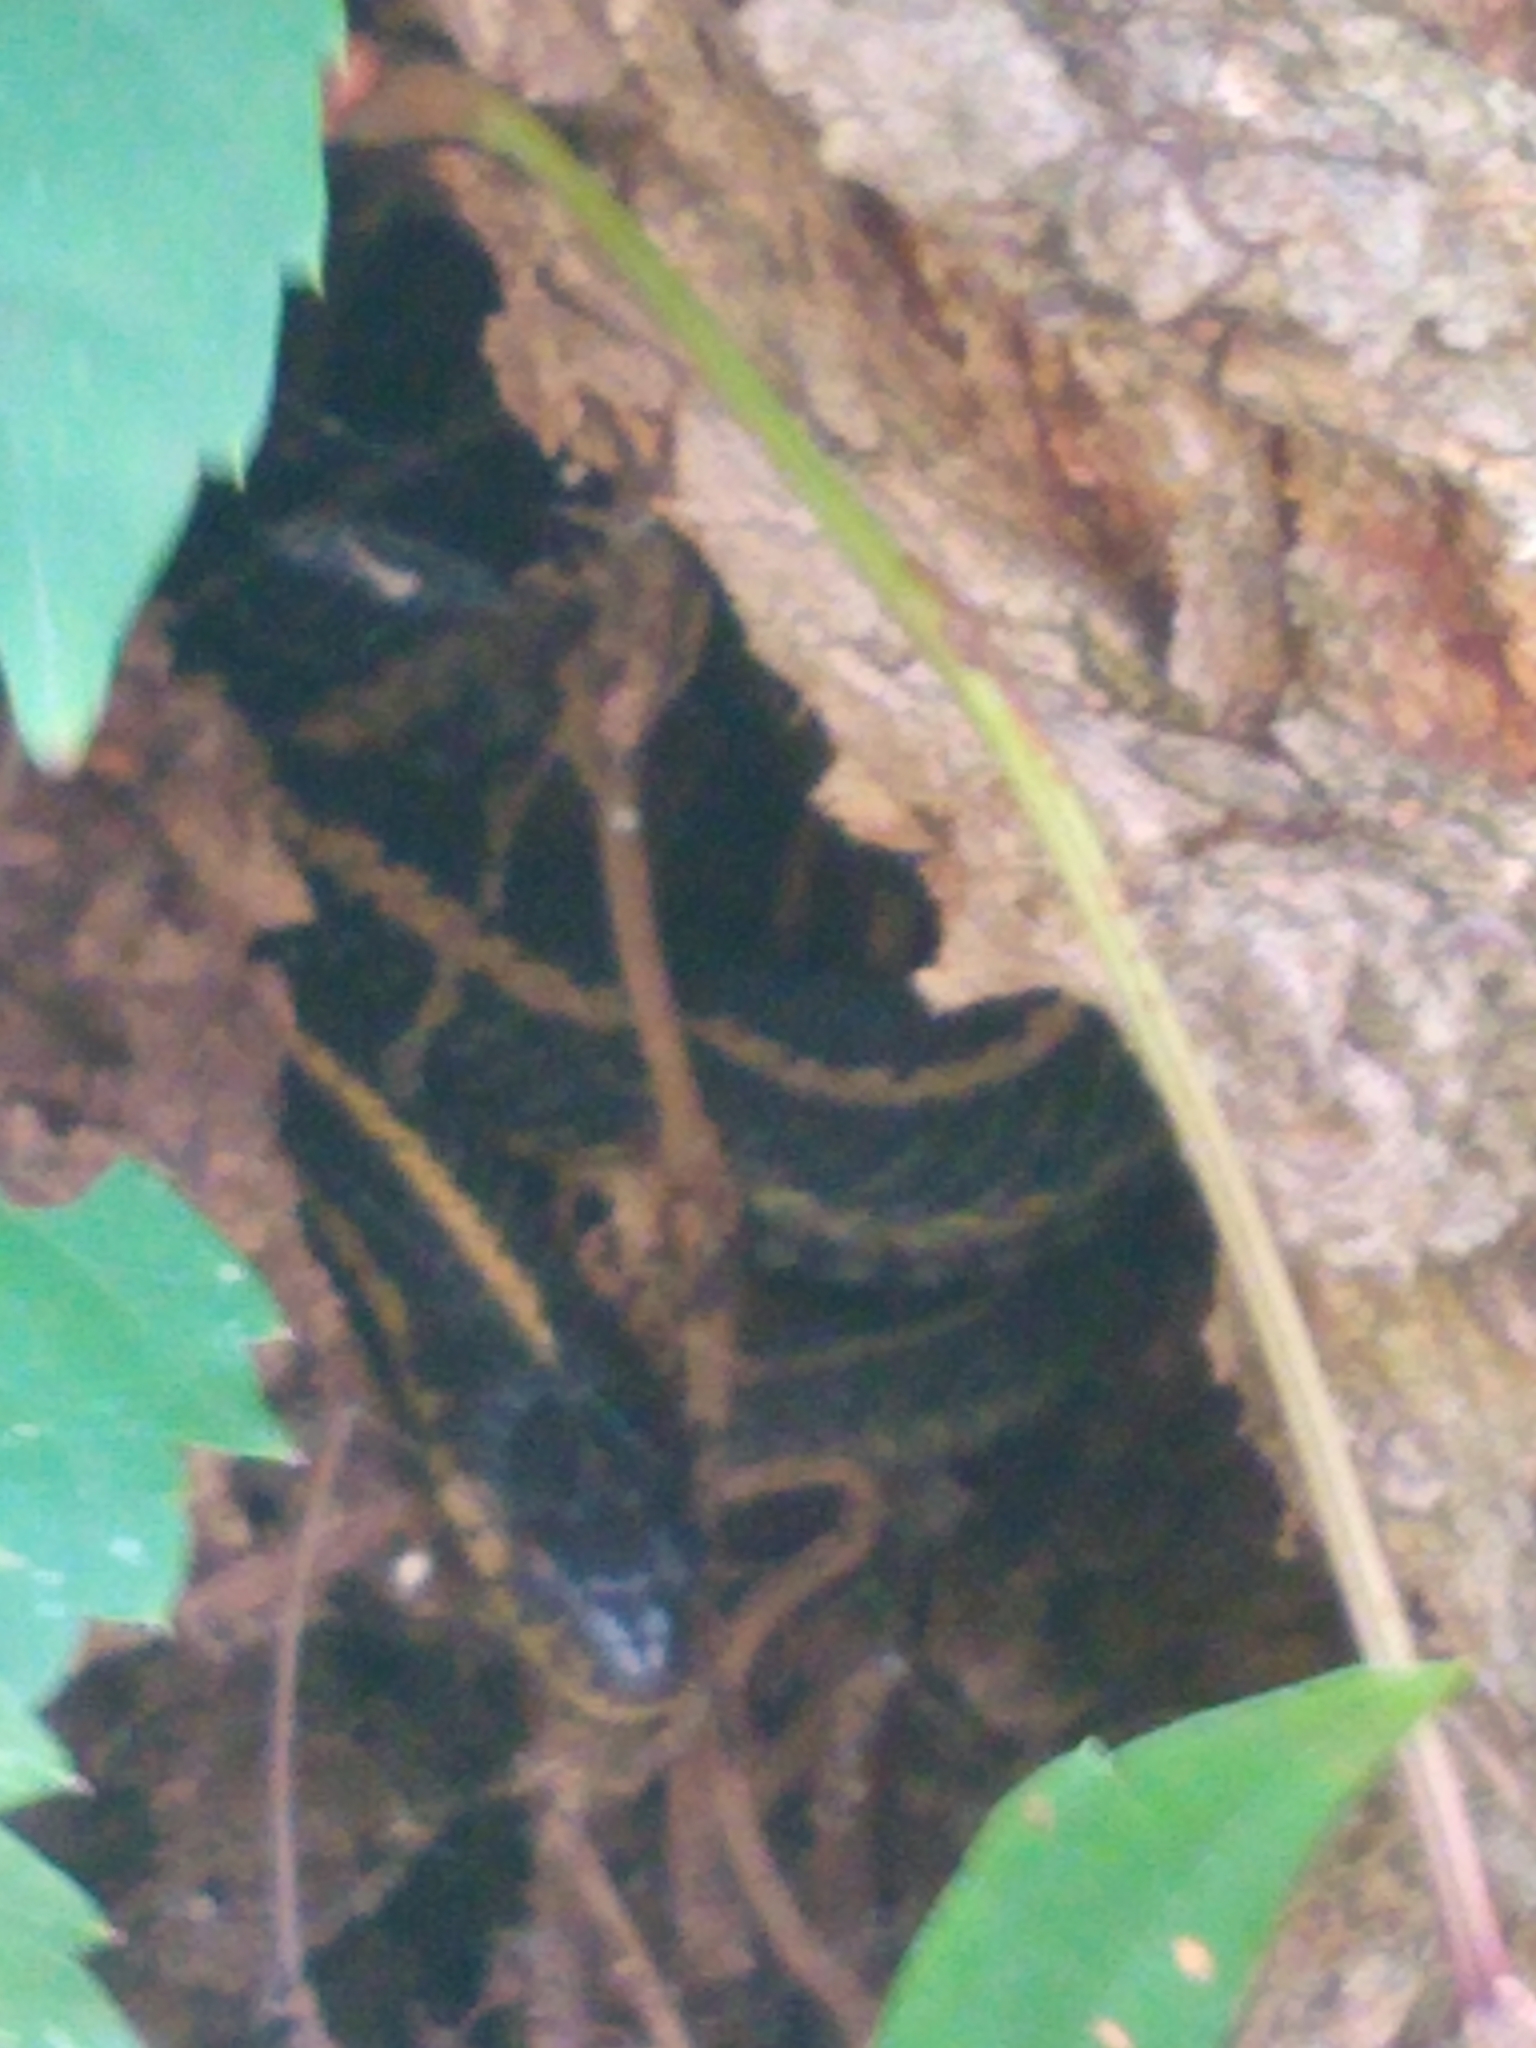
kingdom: Animalia
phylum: Chordata
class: Squamata
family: Colubridae
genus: Thamnophis
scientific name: Thamnophis sirtalis
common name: Common garter snake
